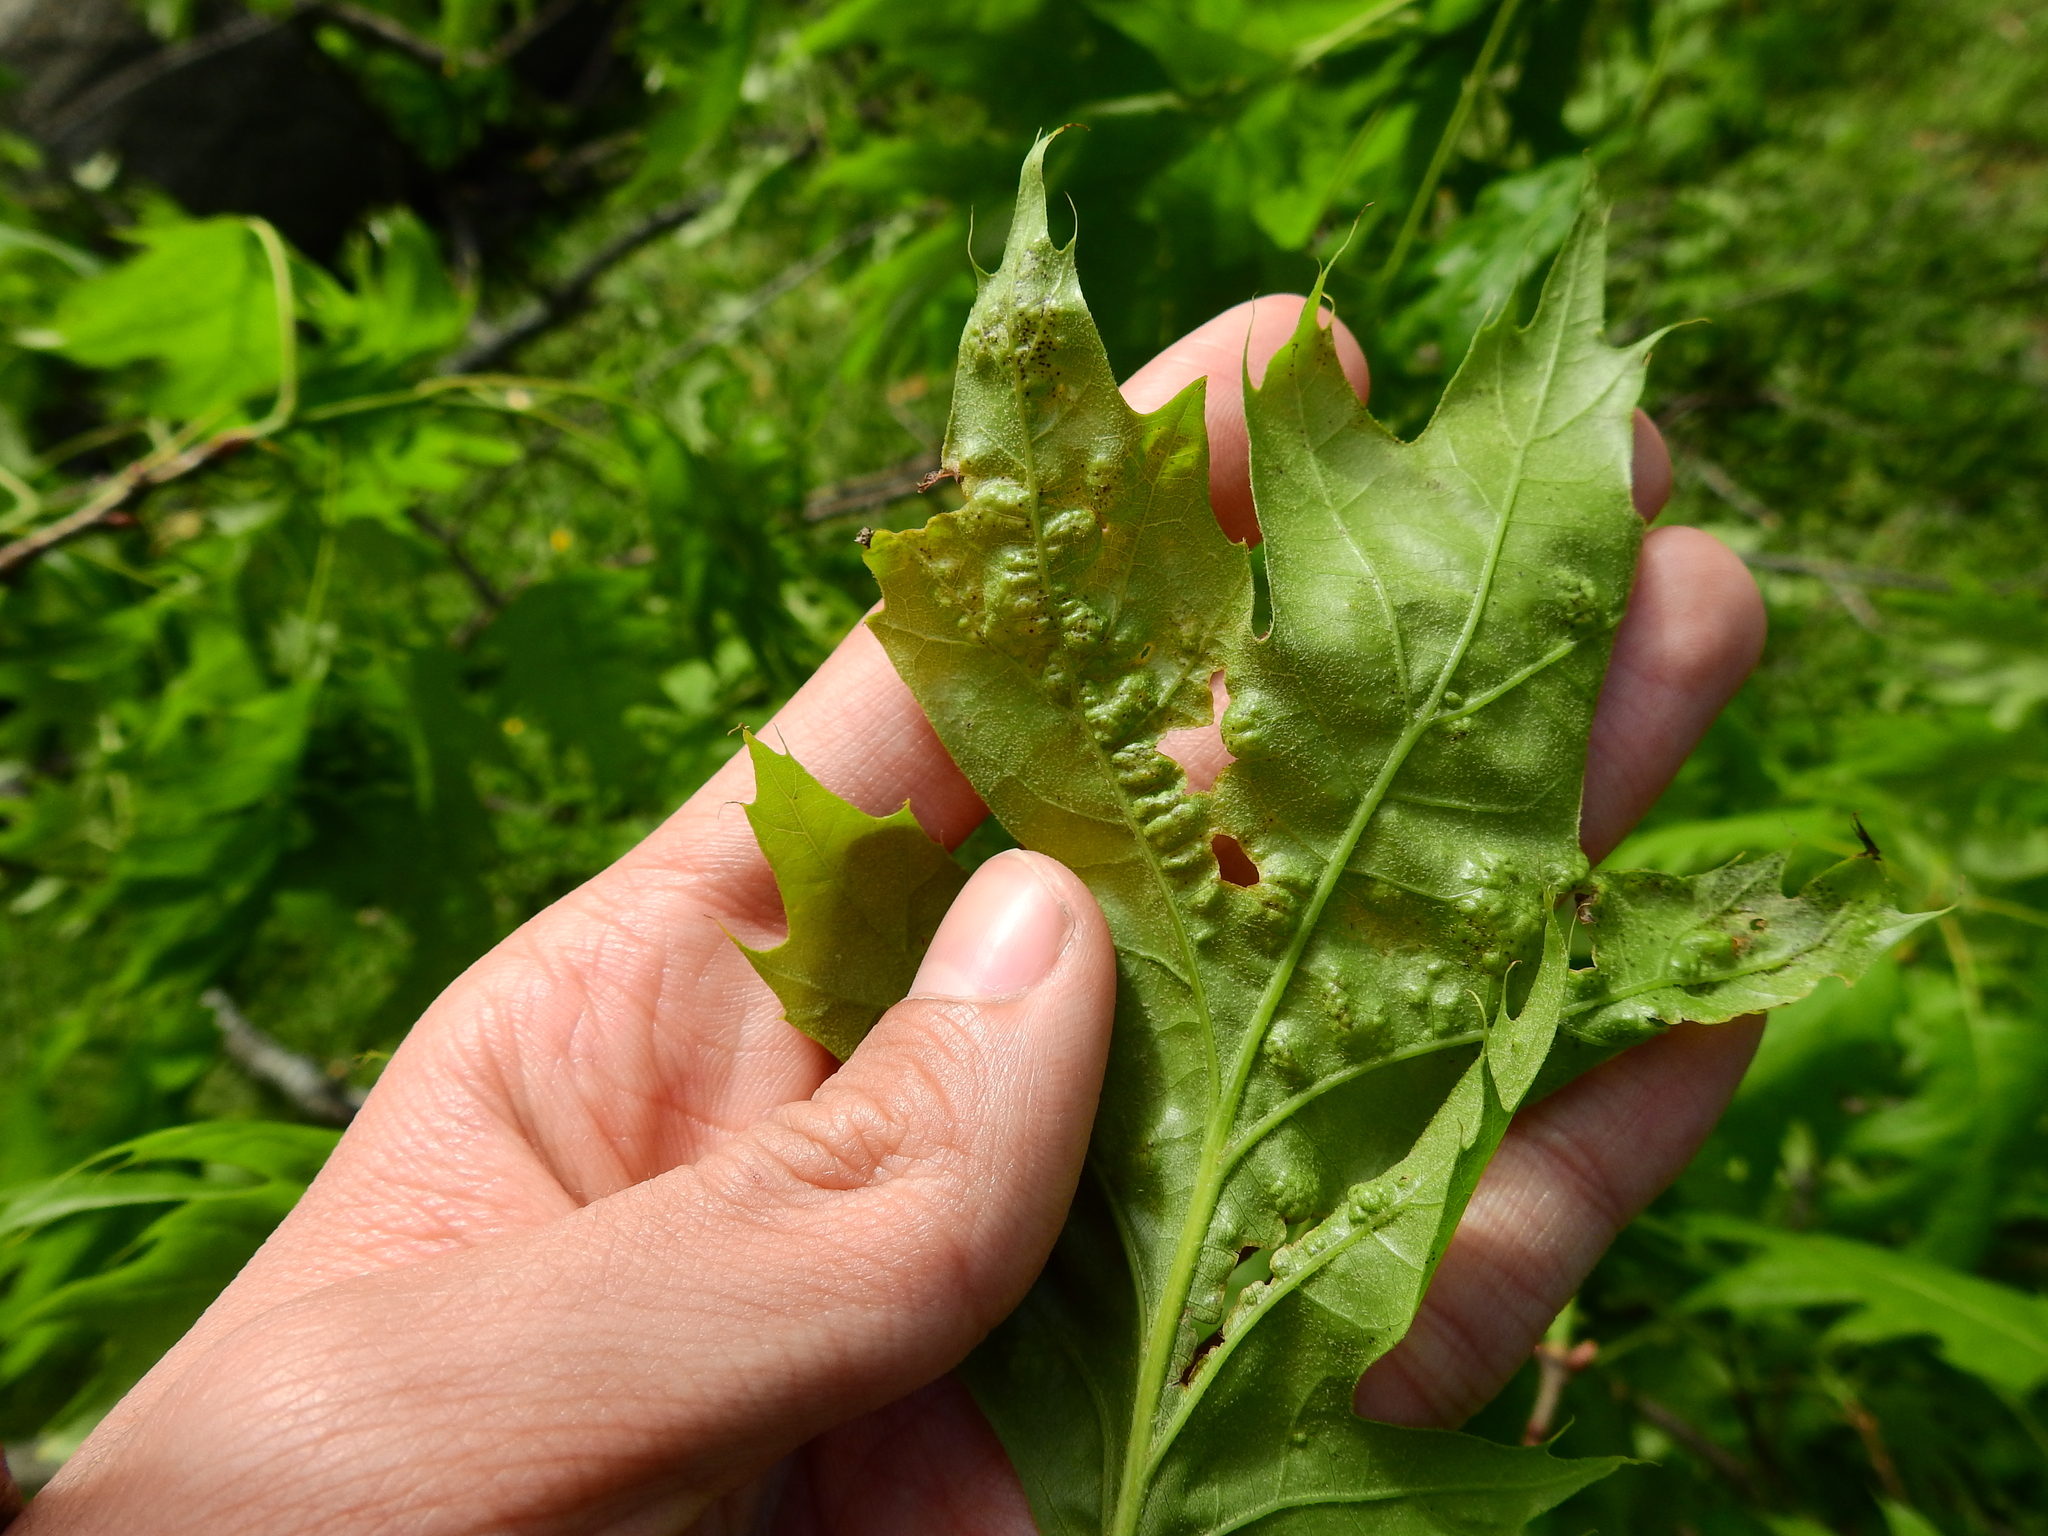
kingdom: Fungi
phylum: Ascomycota
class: Taphrinomycetes
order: Taphrinales
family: Taphrinaceae
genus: Taphrina
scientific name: Taphrina caerulescens
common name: Oak leaf blister
